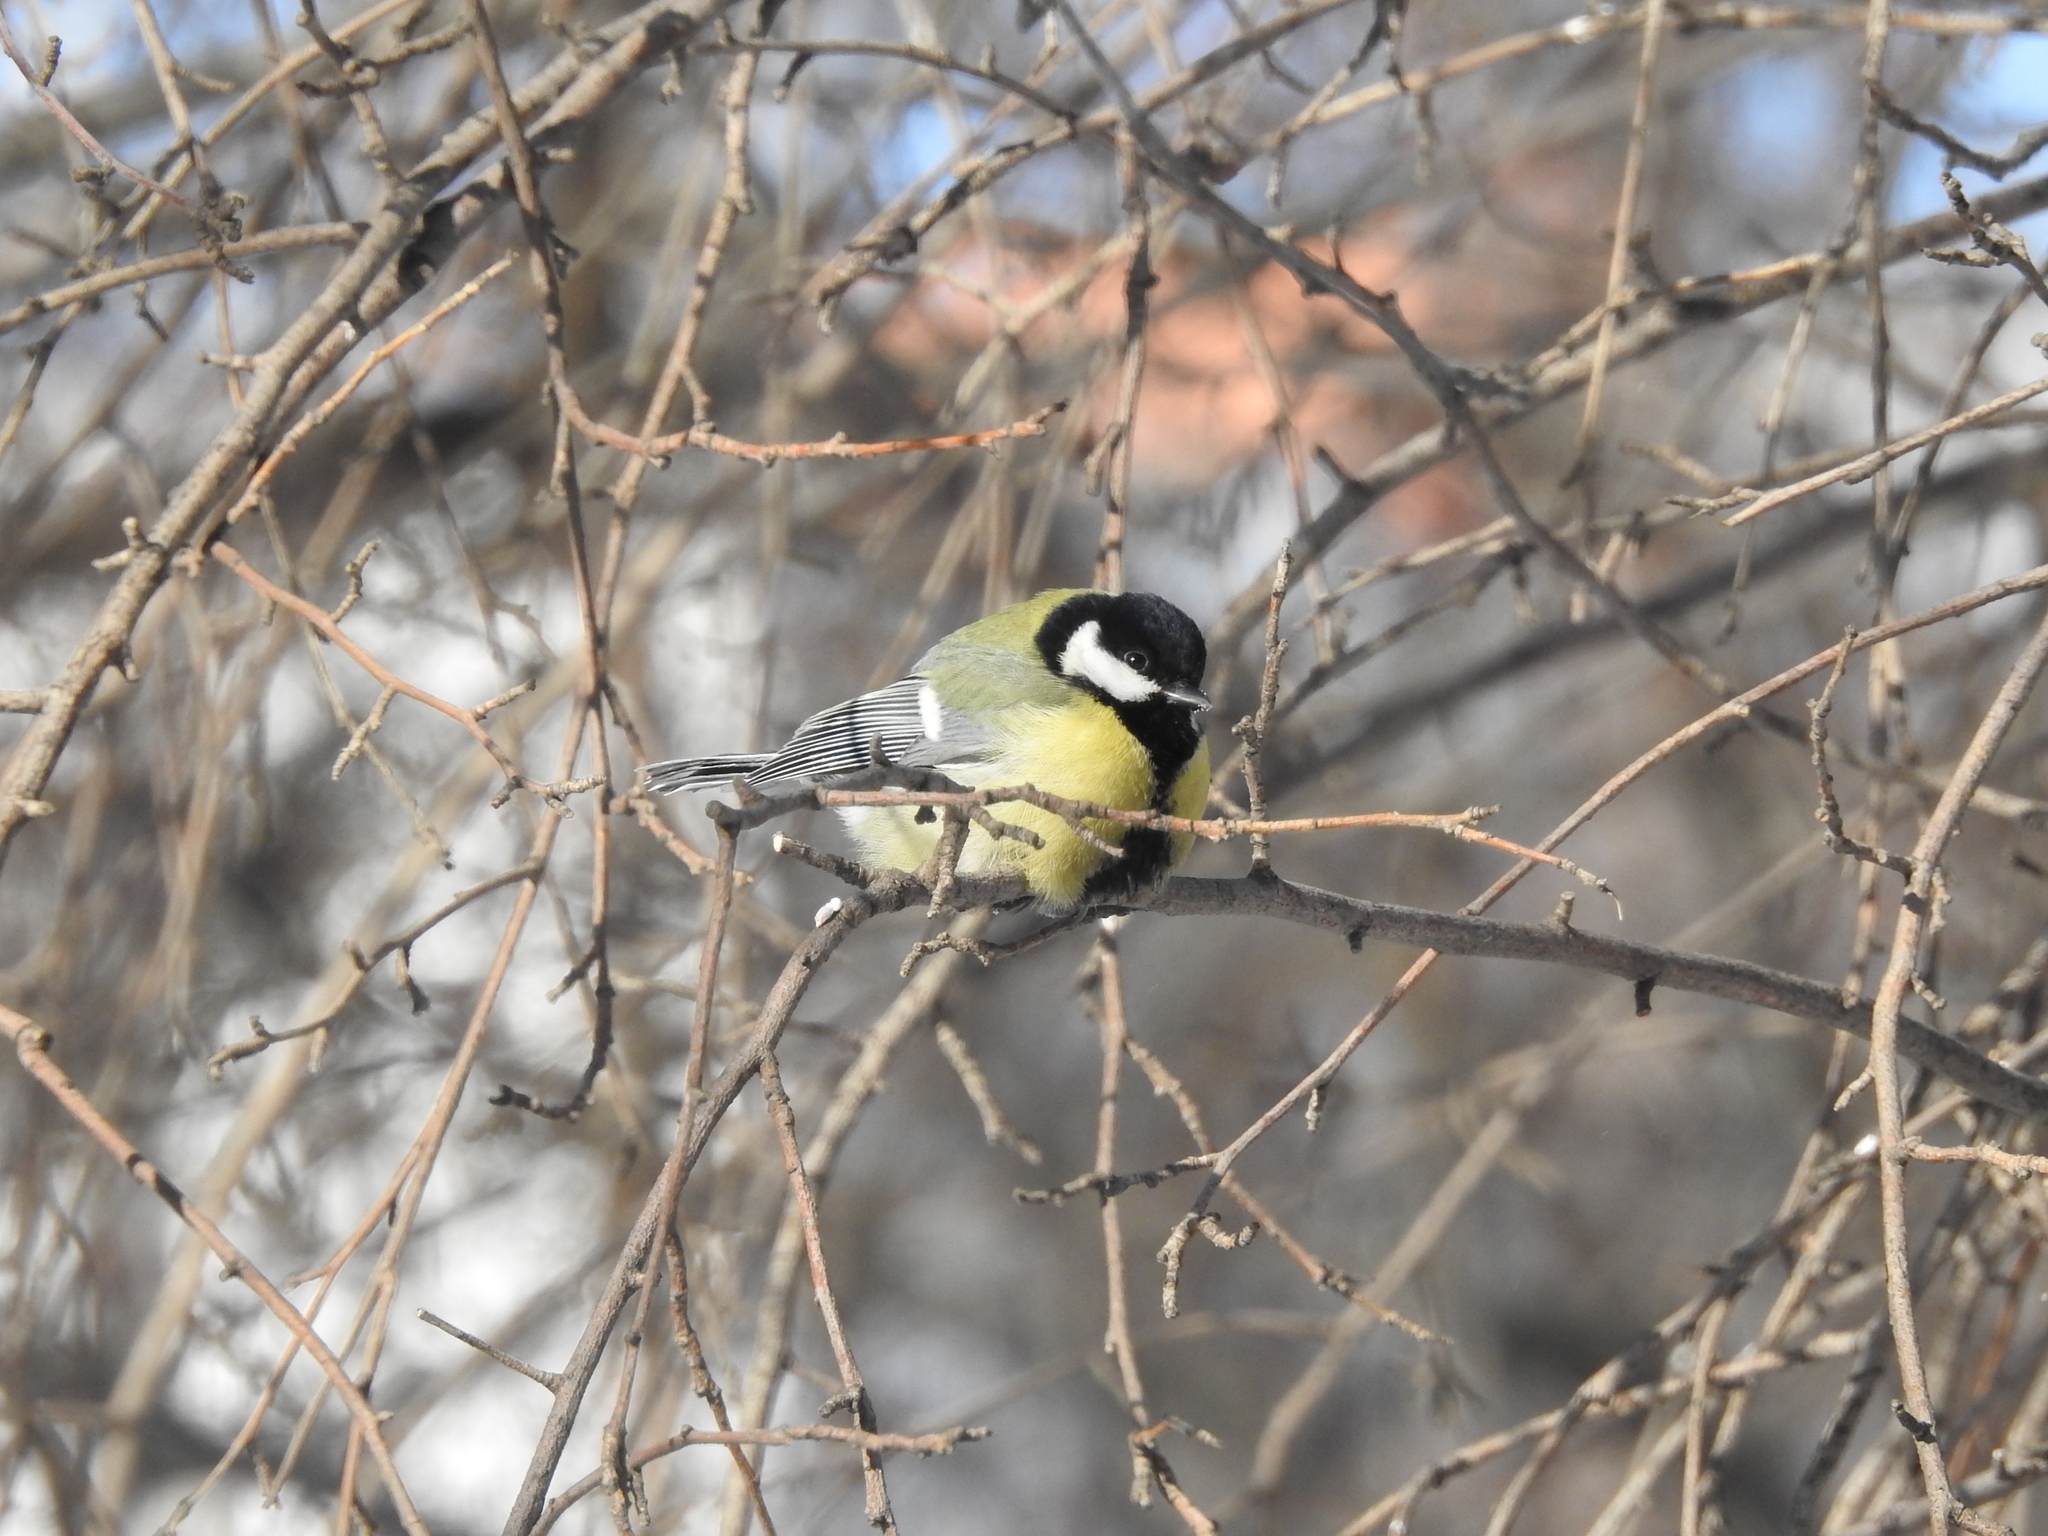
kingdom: Animalia
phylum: Chordata
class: Aves
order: Passeriformes
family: Paridae
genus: Parus
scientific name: Parus major
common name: Great tit
